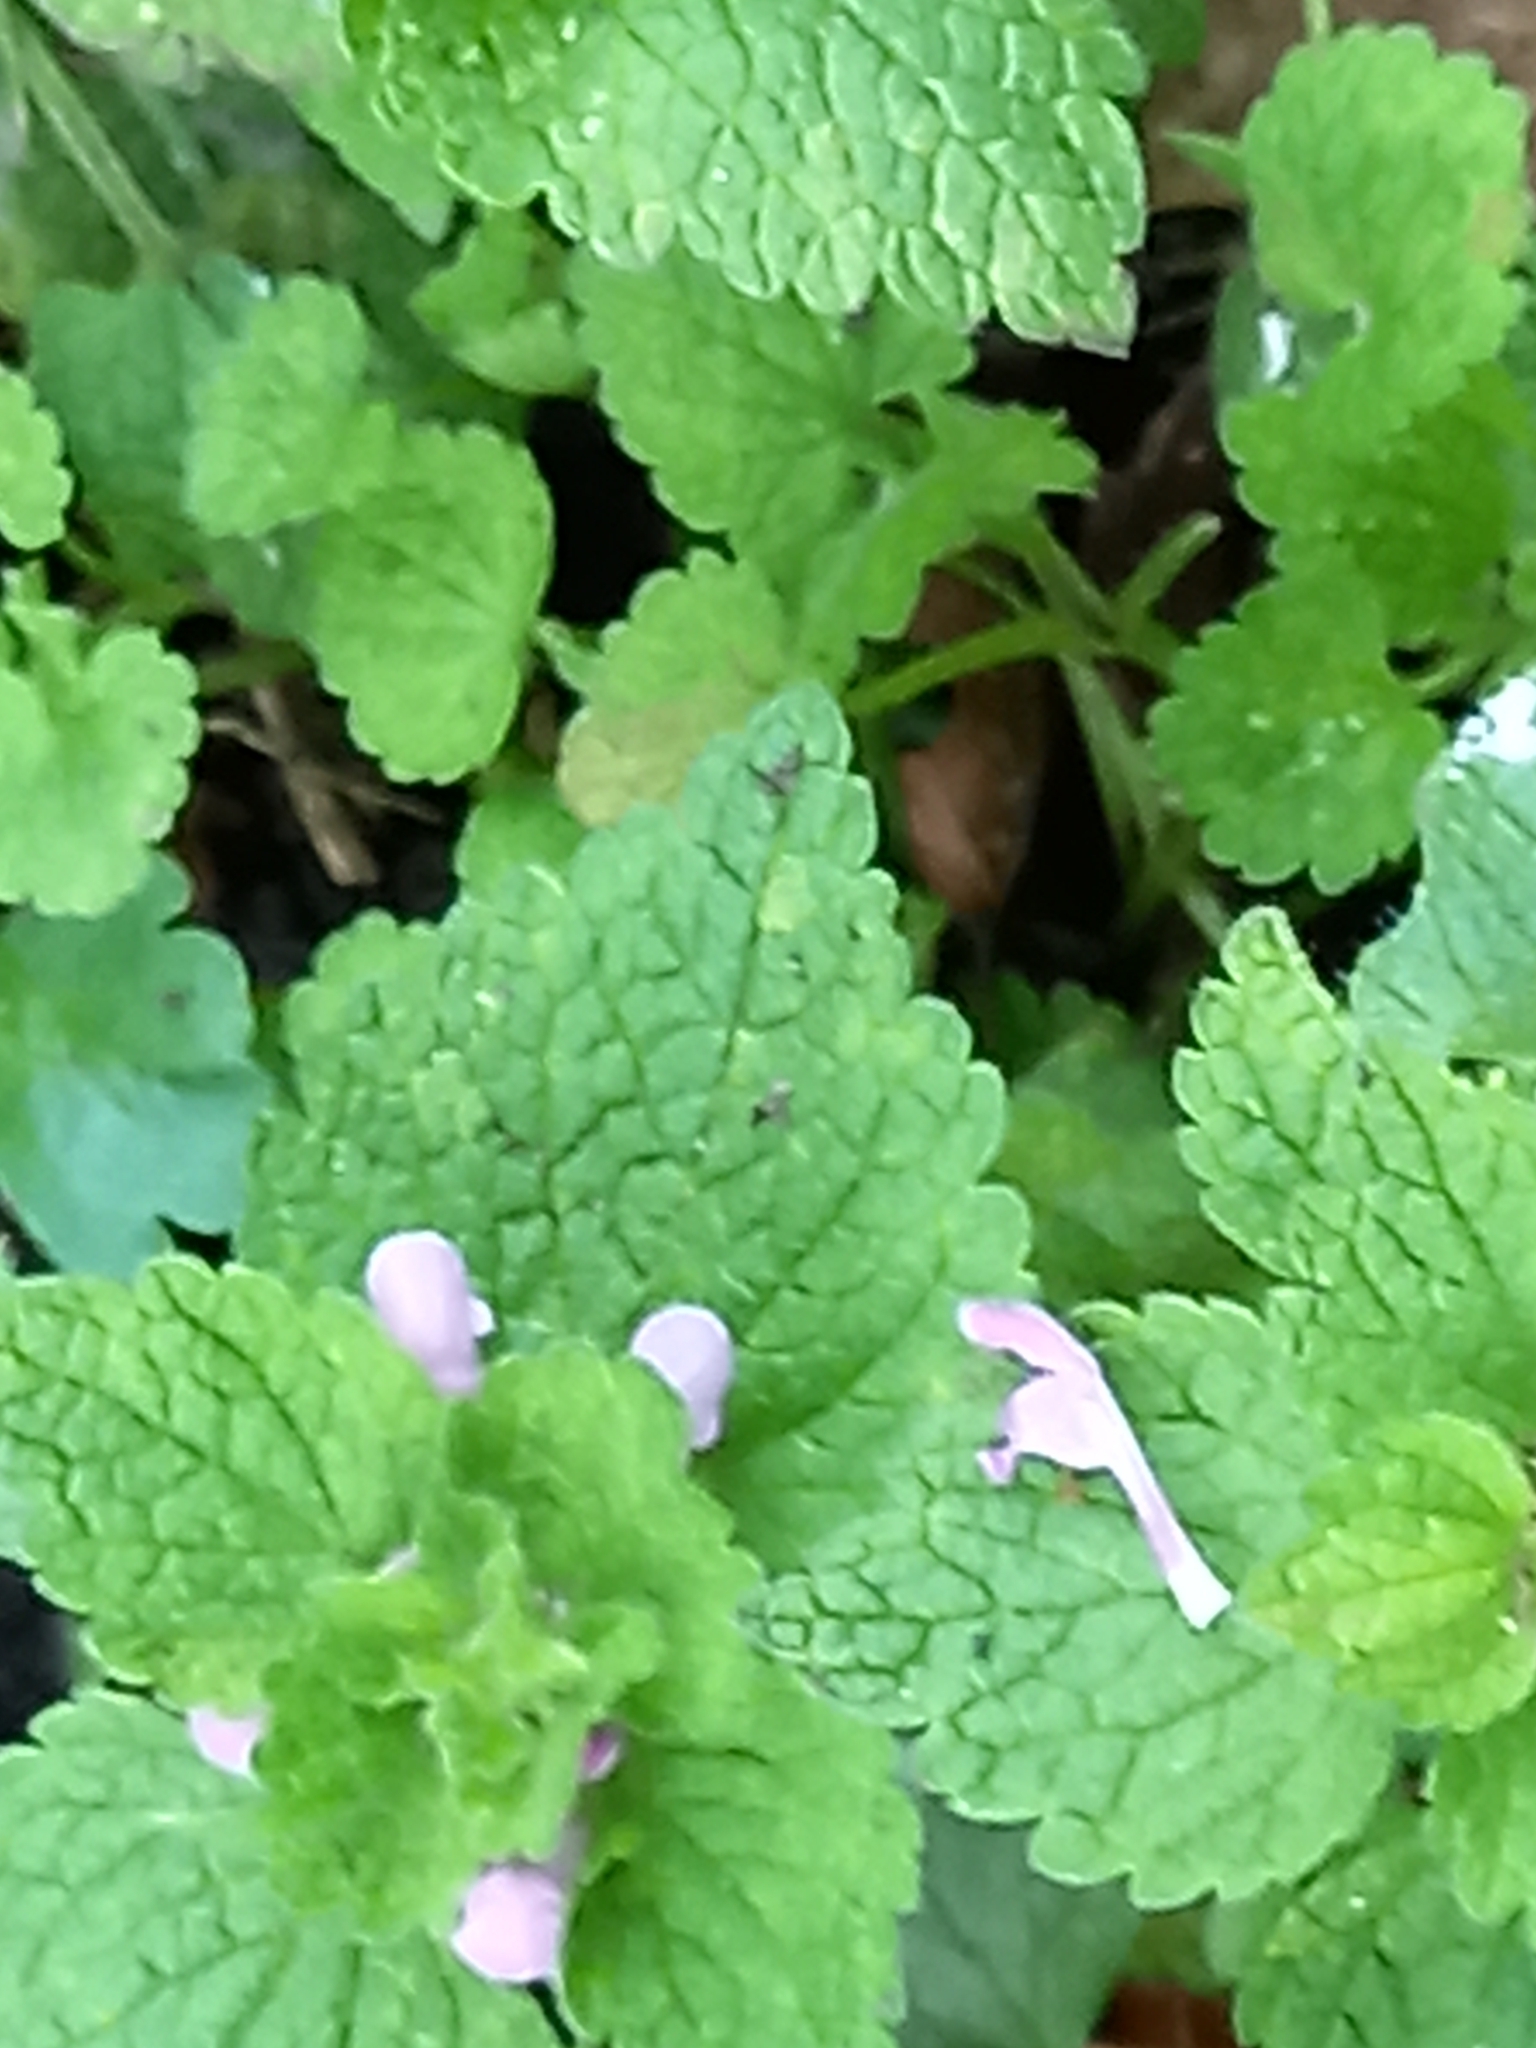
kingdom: Plantae
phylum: Tracheophyta
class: Magnoliopsida
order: Lamiales
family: Lamiaceae
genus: Lamium
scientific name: Lamium purpureum
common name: Red dead-nettle
